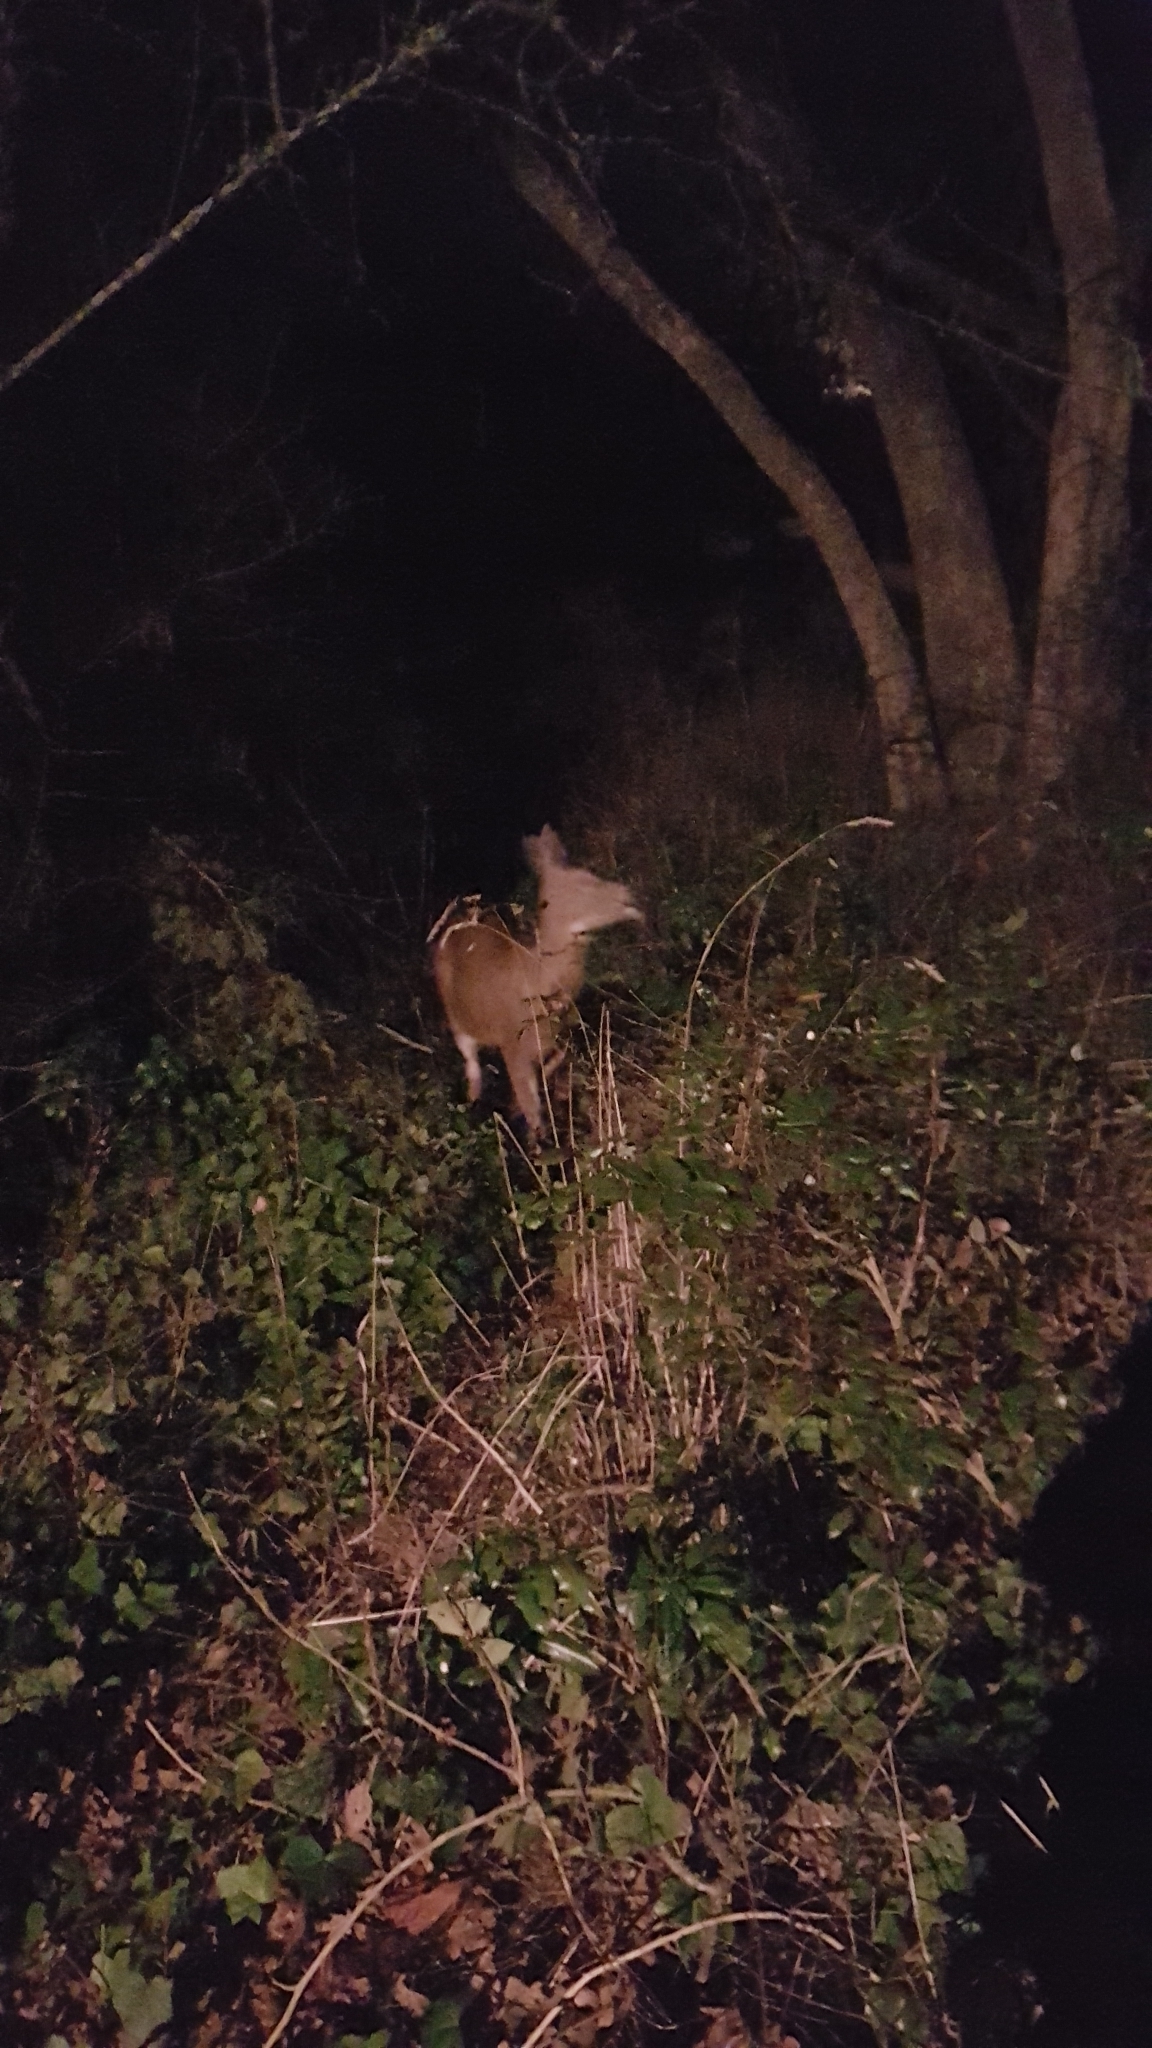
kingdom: Animalia
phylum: Chordata
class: Mammalia
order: Artiodactyla
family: Cervidae
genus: Odocoileus
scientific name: Odocoileus hemionus
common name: Mule deer
